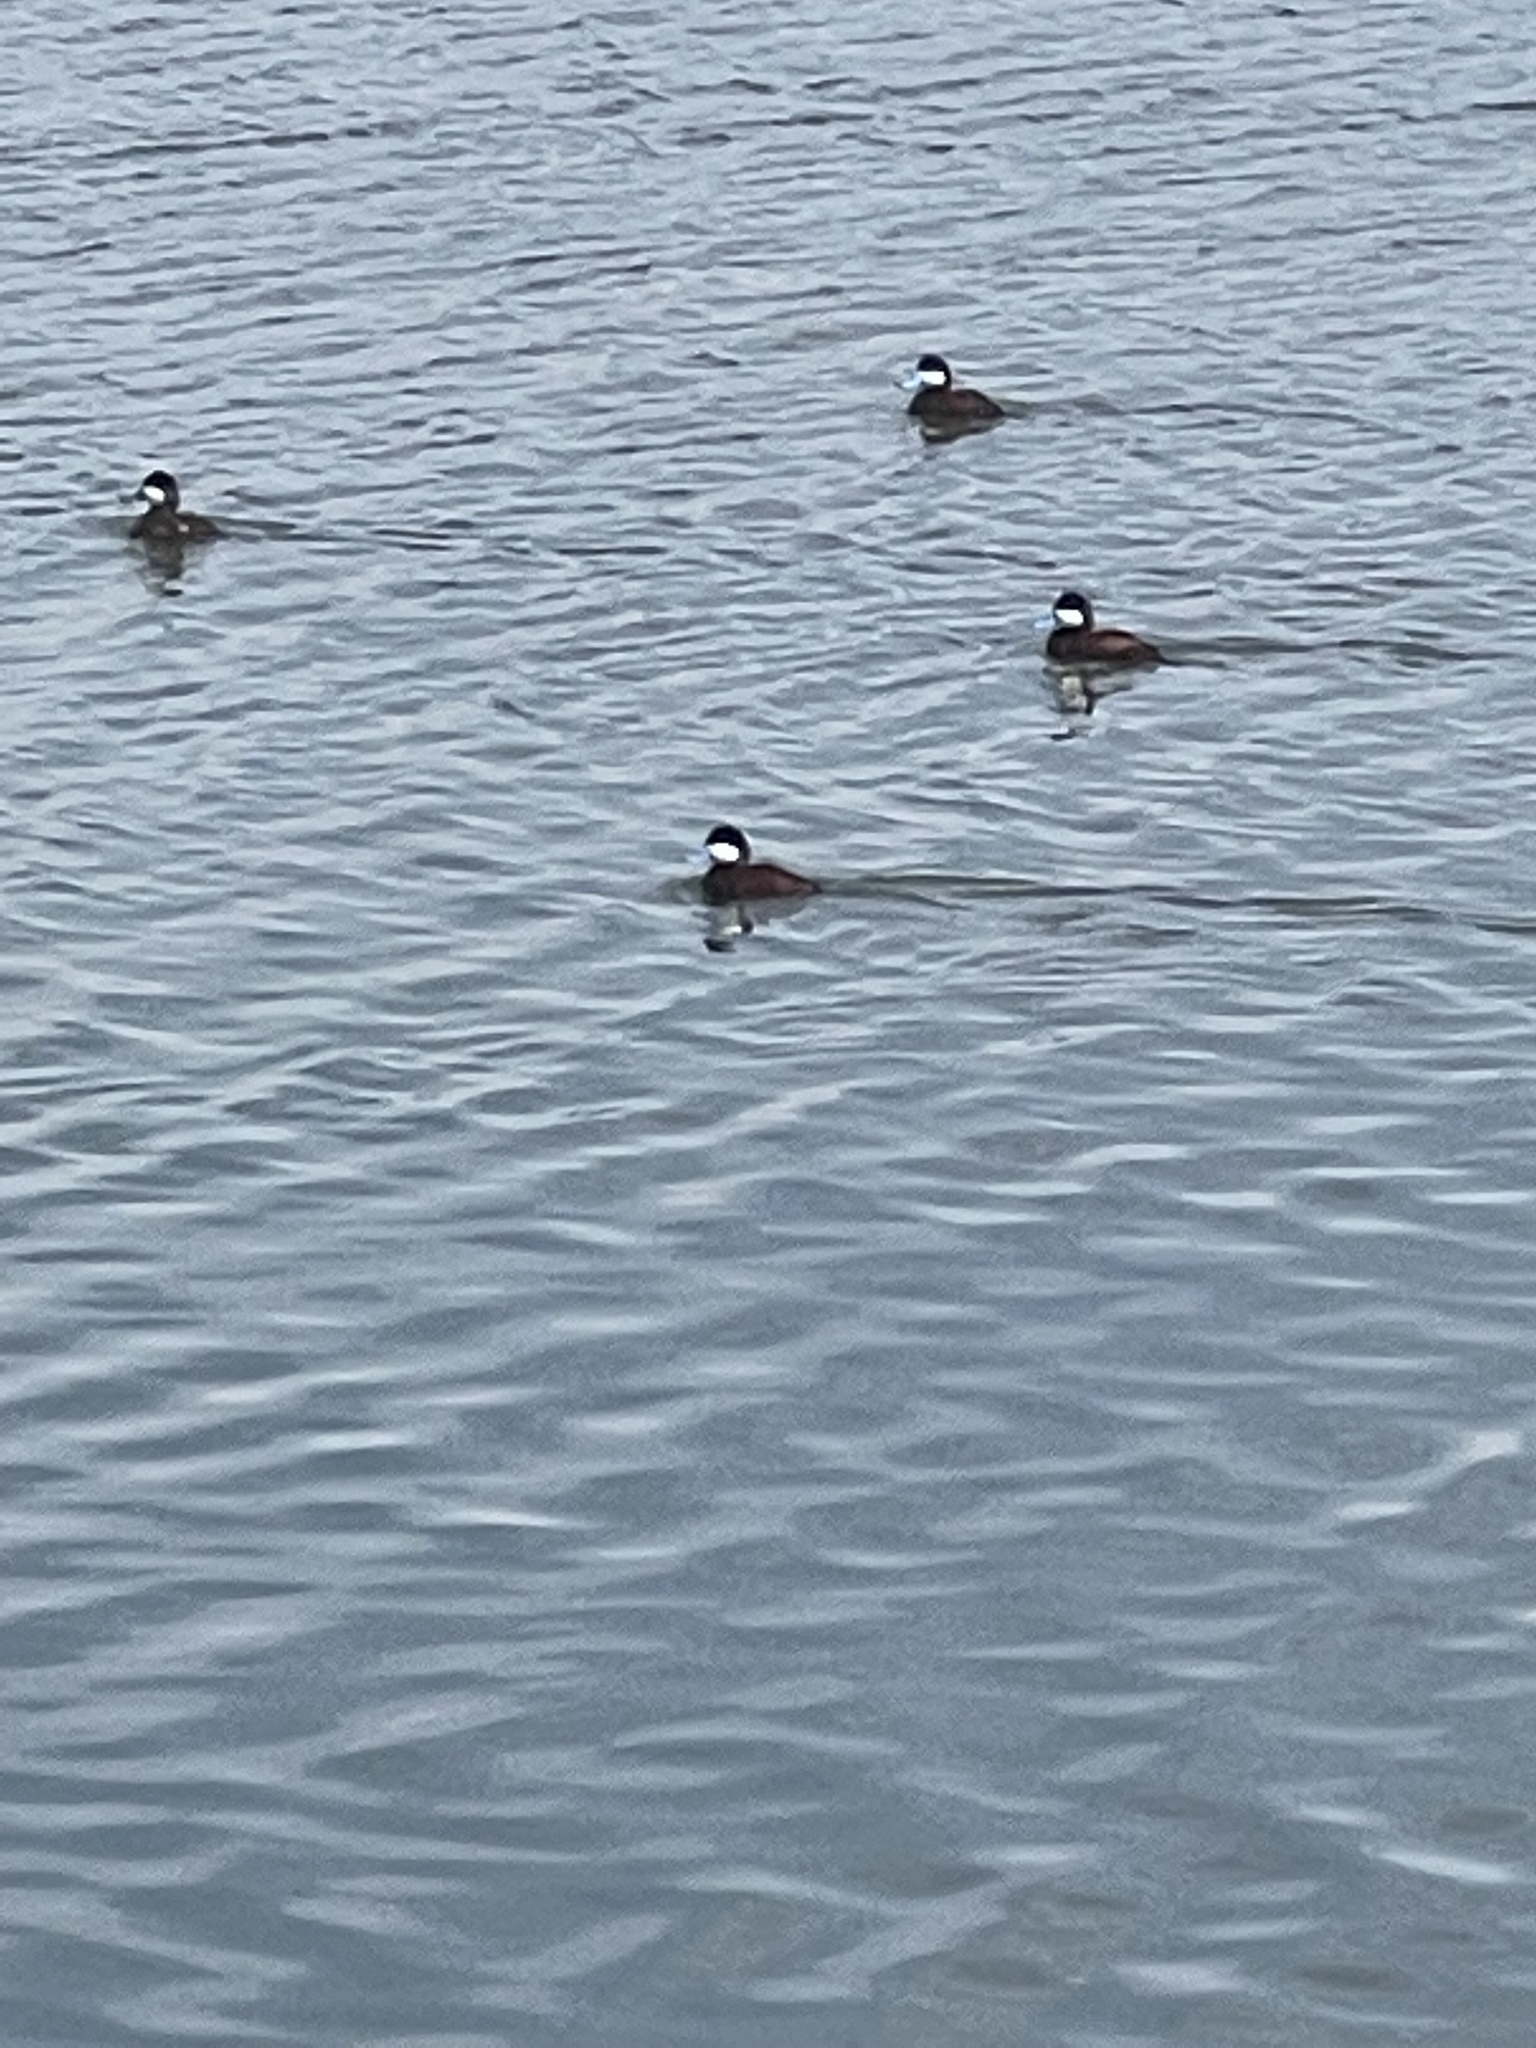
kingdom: Animalia
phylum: Chordata
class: Aves
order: Anseriformes
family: Anatidae
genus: Oxyura
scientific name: Oxyura jamaicensis
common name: Ruddy duck
